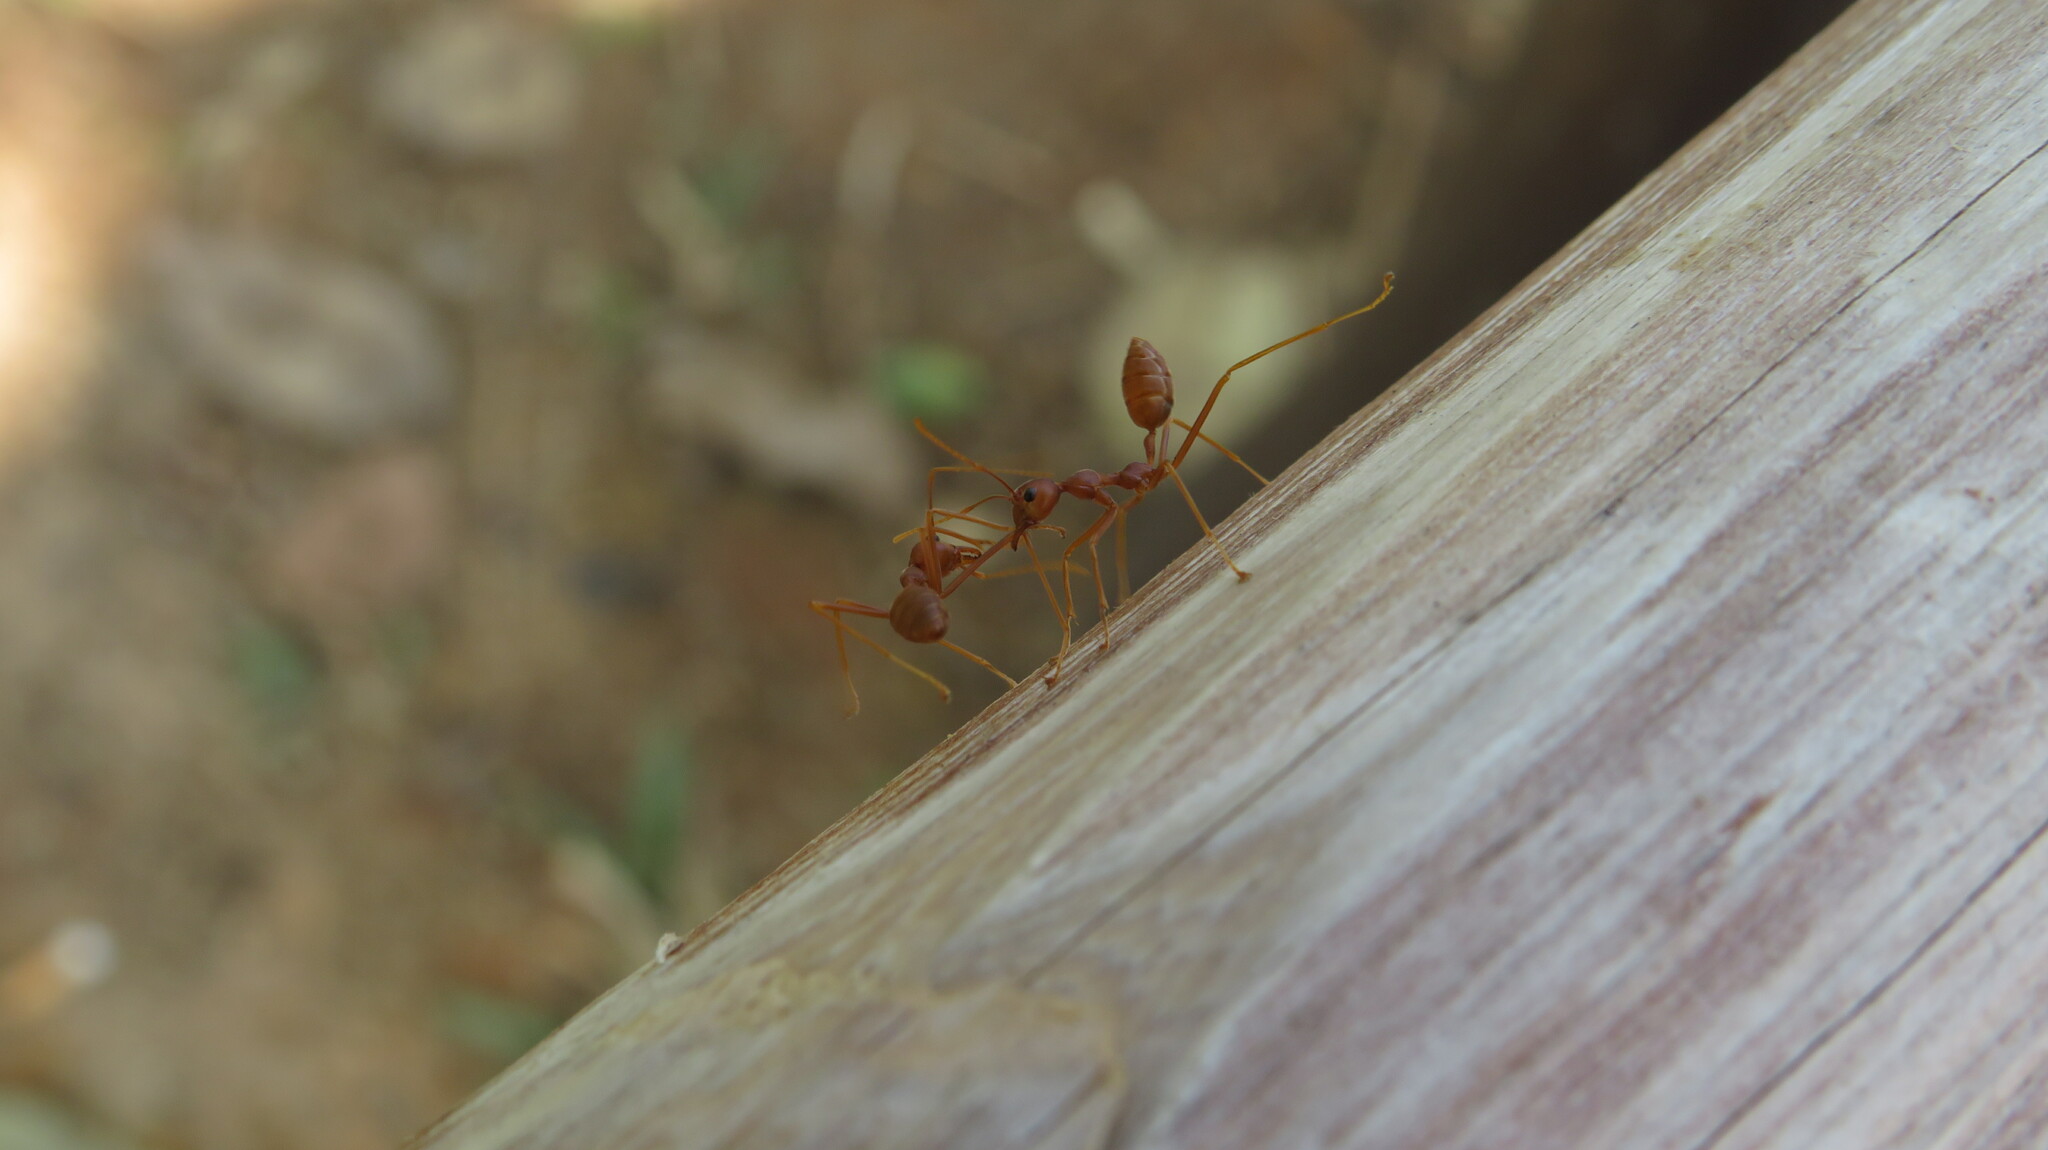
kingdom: Animalia
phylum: Arthropoda
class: Insecta
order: Hymenoptera
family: Formicidae
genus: Oecophylla
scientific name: Oecophylla smaragdina
